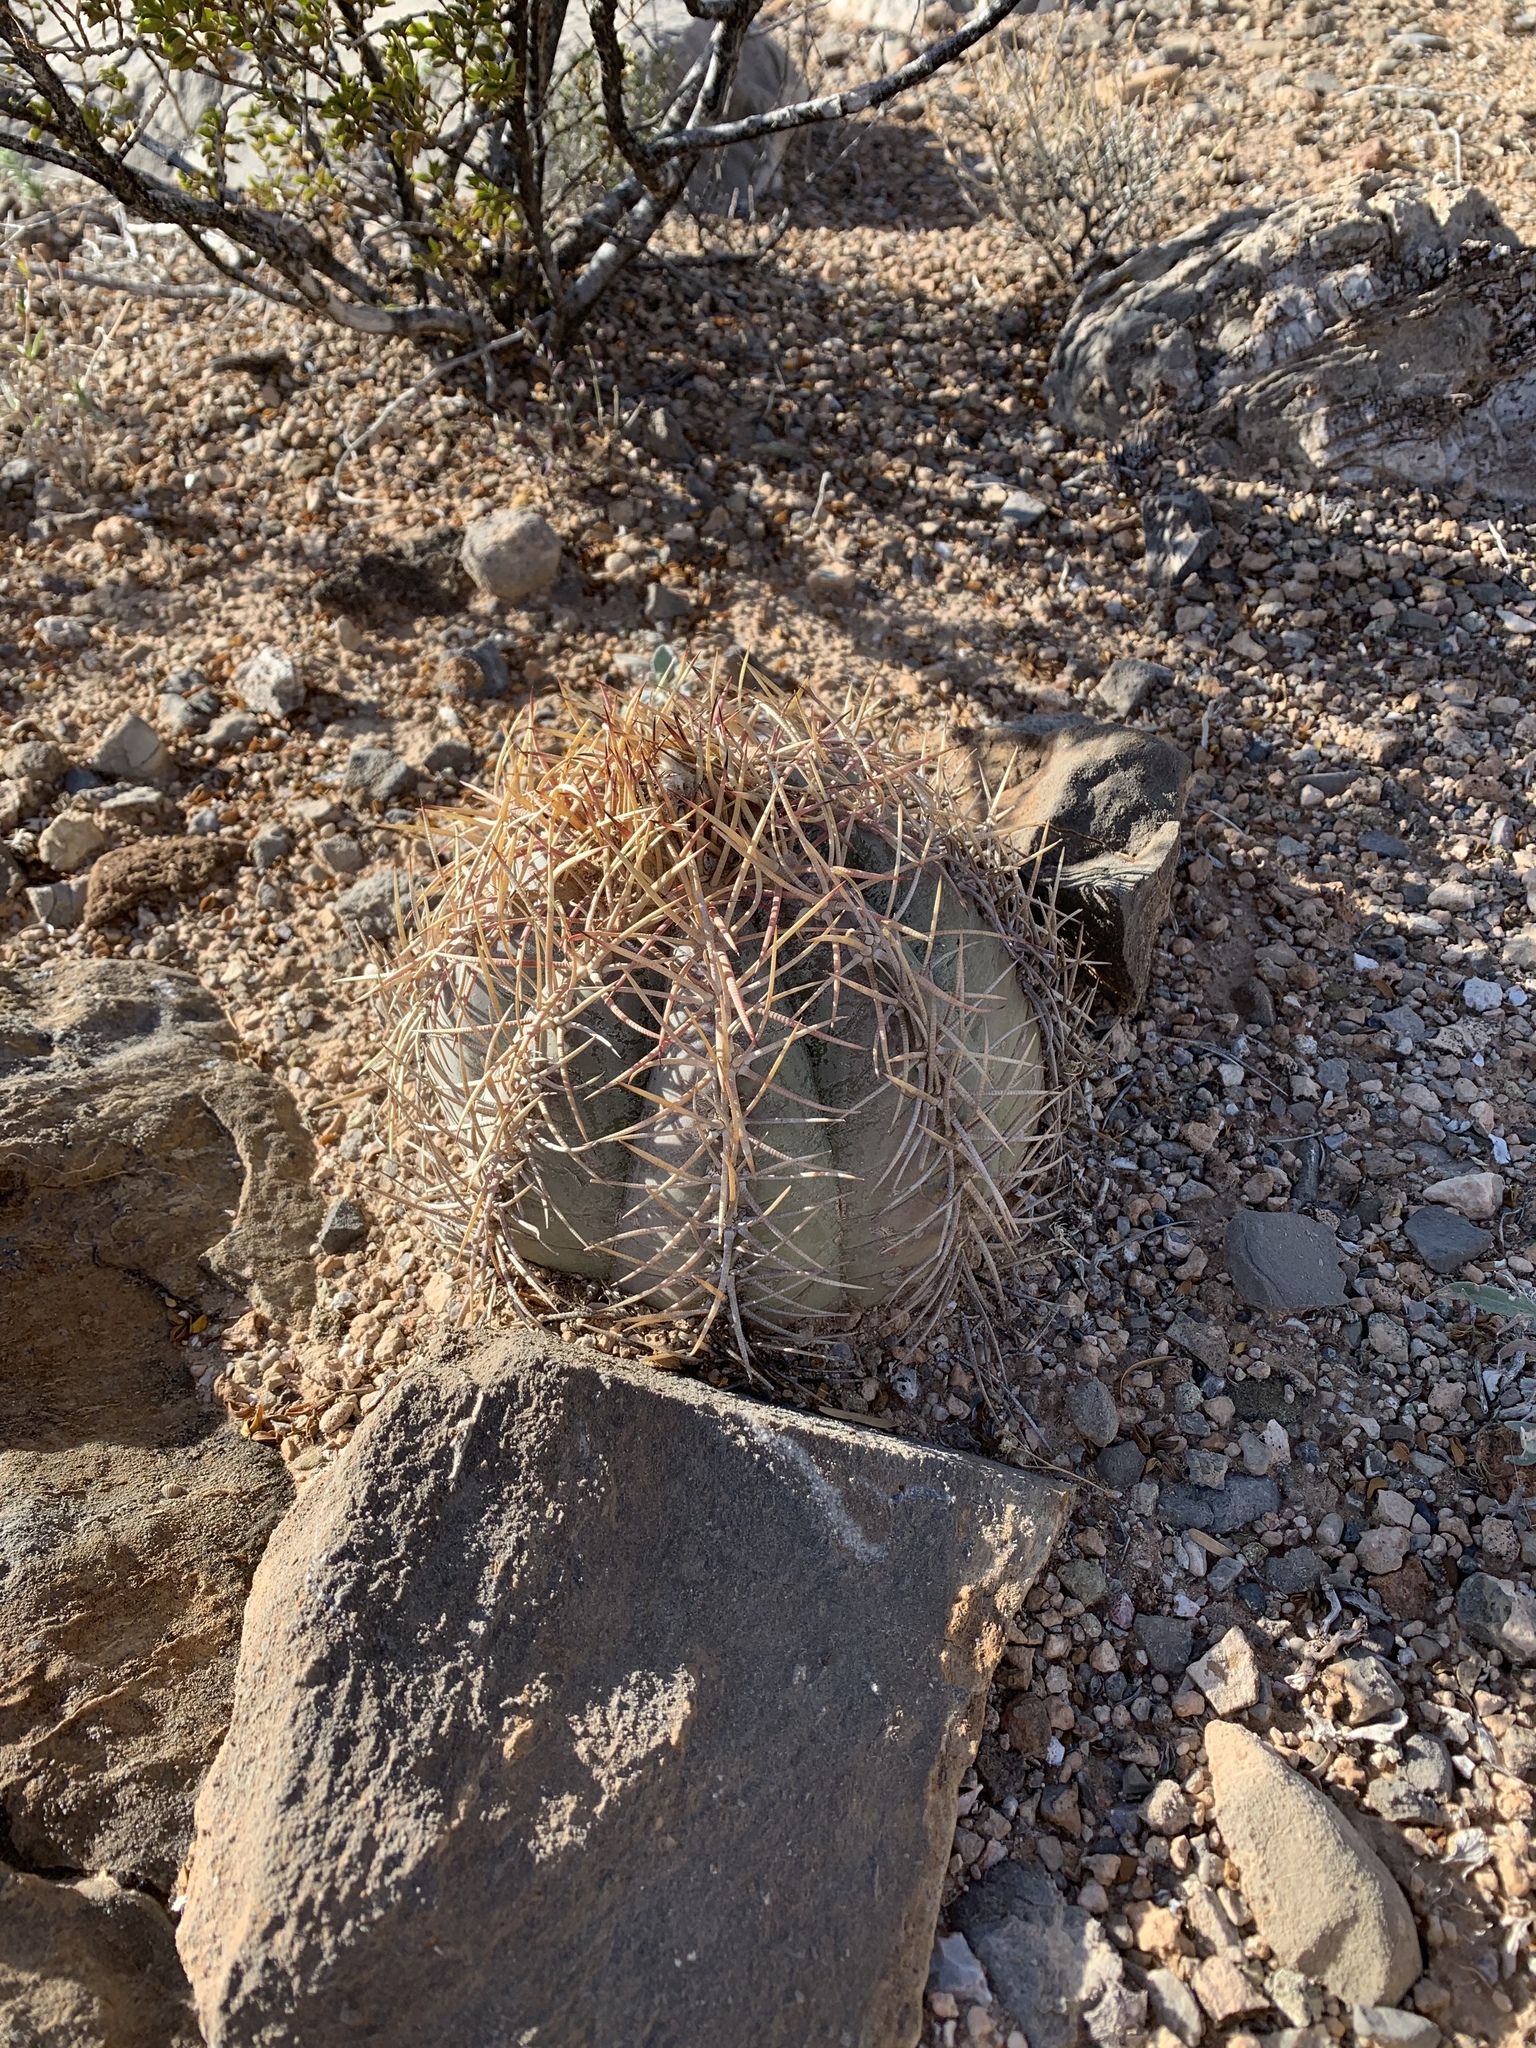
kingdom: Plantae
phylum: Tracheophyta
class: Magnoliopsida
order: Caryophyllales
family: Cactaceae
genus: Echinocactus
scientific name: Echinocactus horizonthalonius
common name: Devilshead
